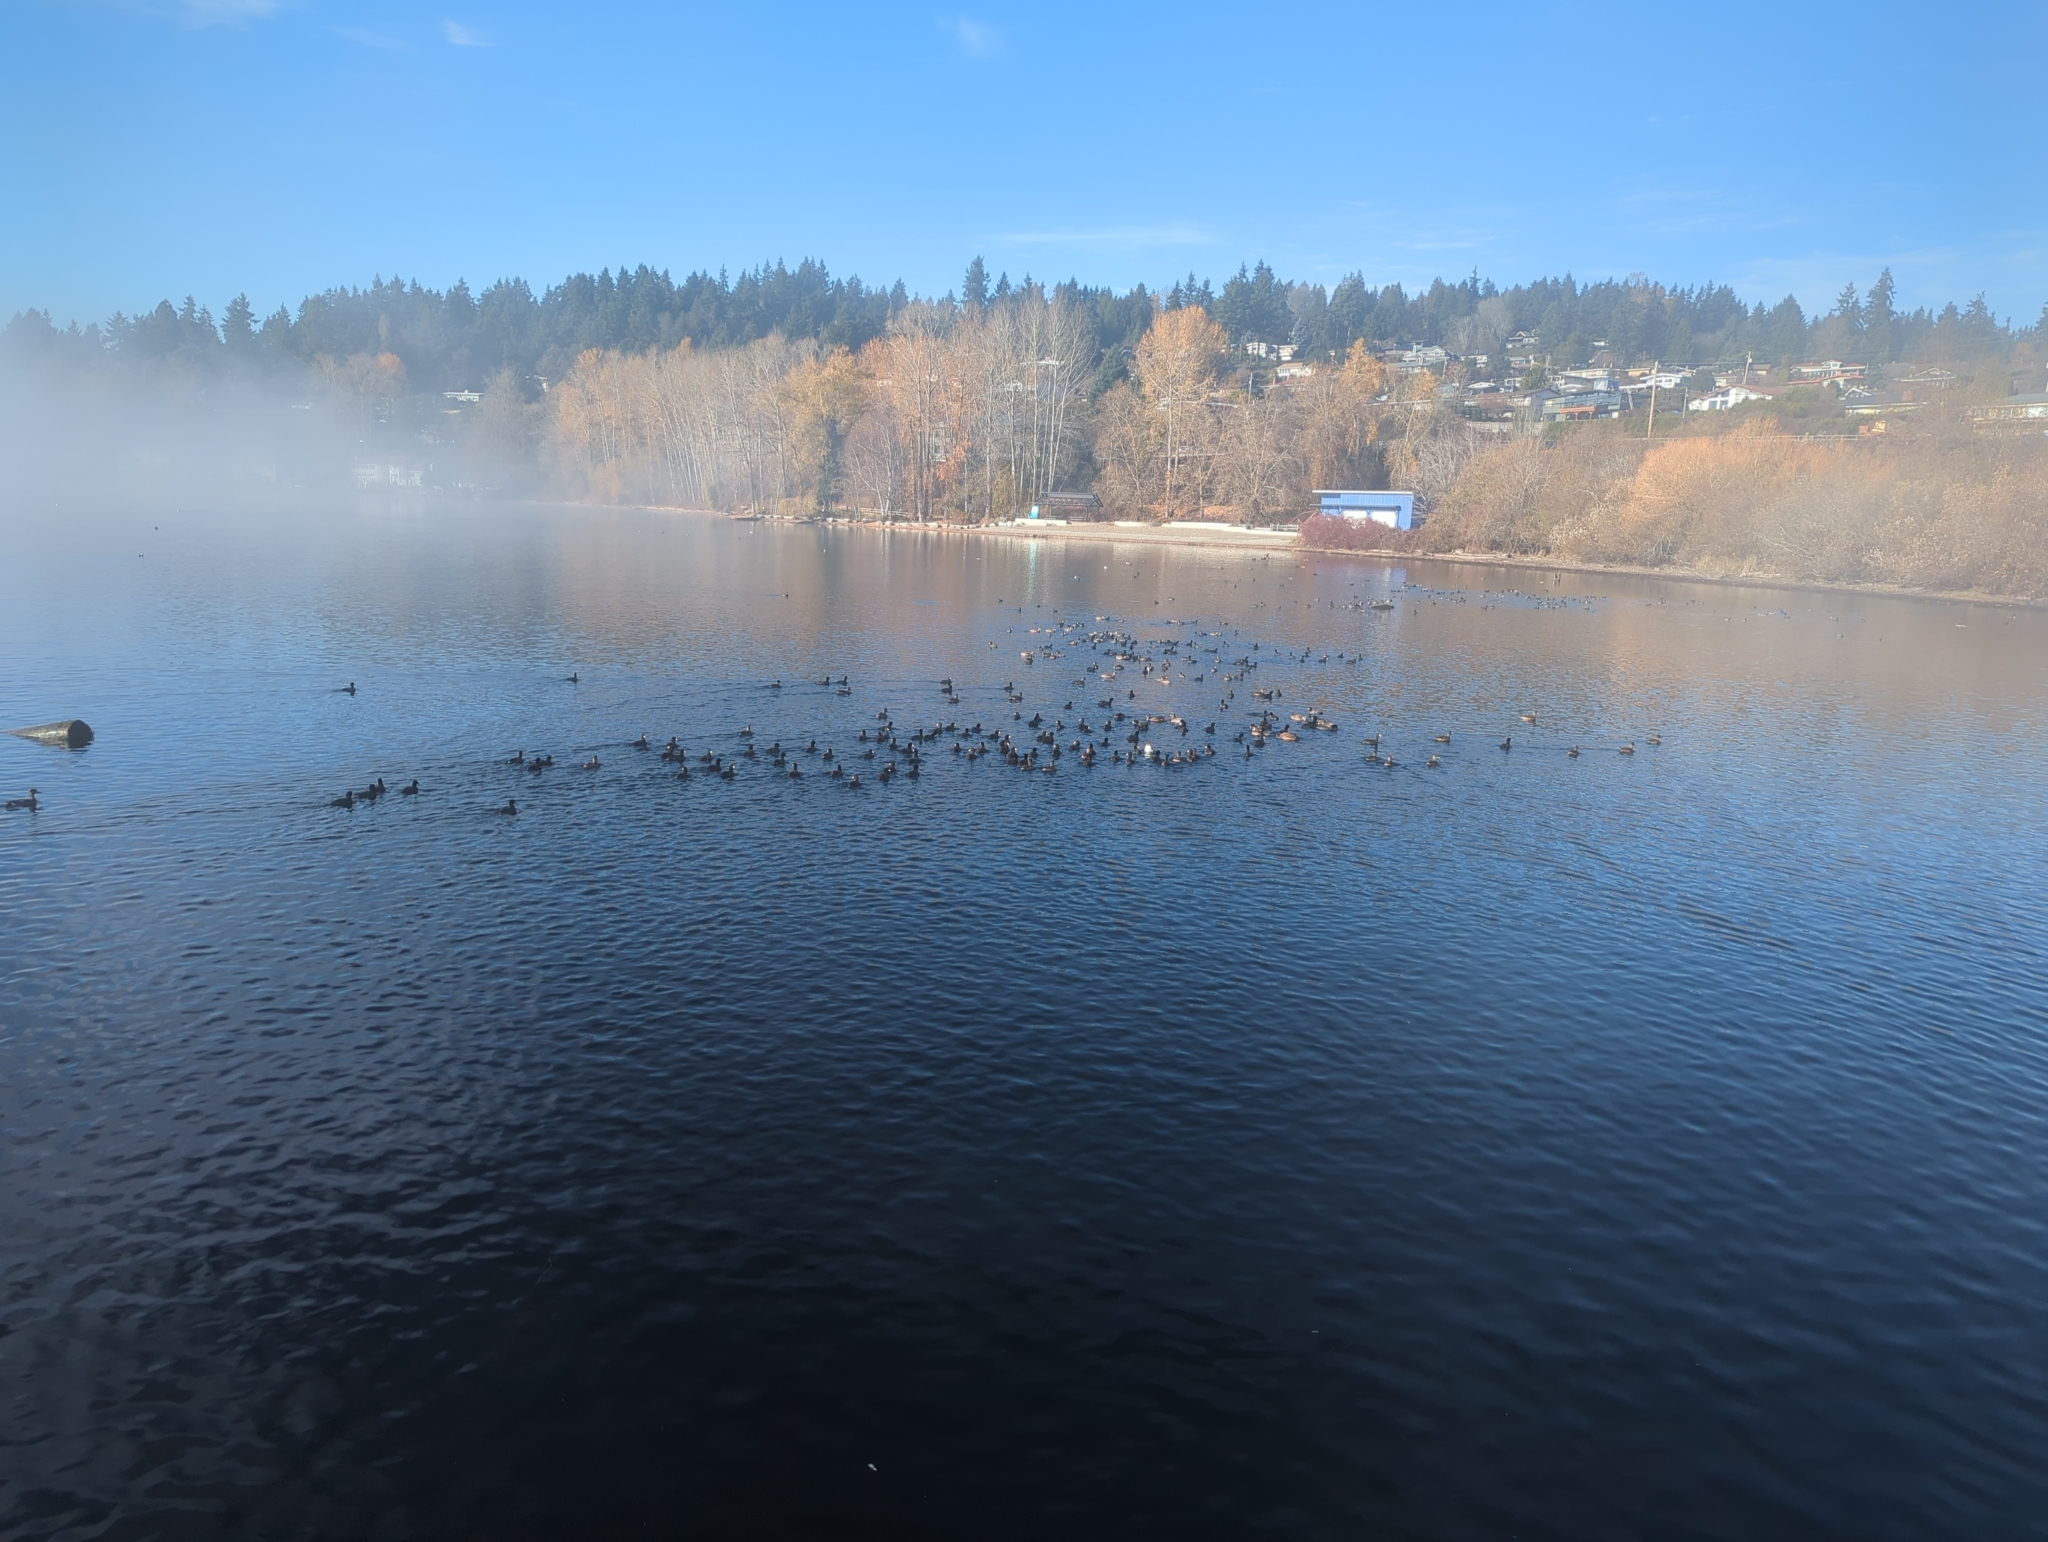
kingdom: Animalia
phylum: Chordata
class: Aves
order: Gruiformes
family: Rallidae
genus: Fulica
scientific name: Fulica americana
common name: American coot
